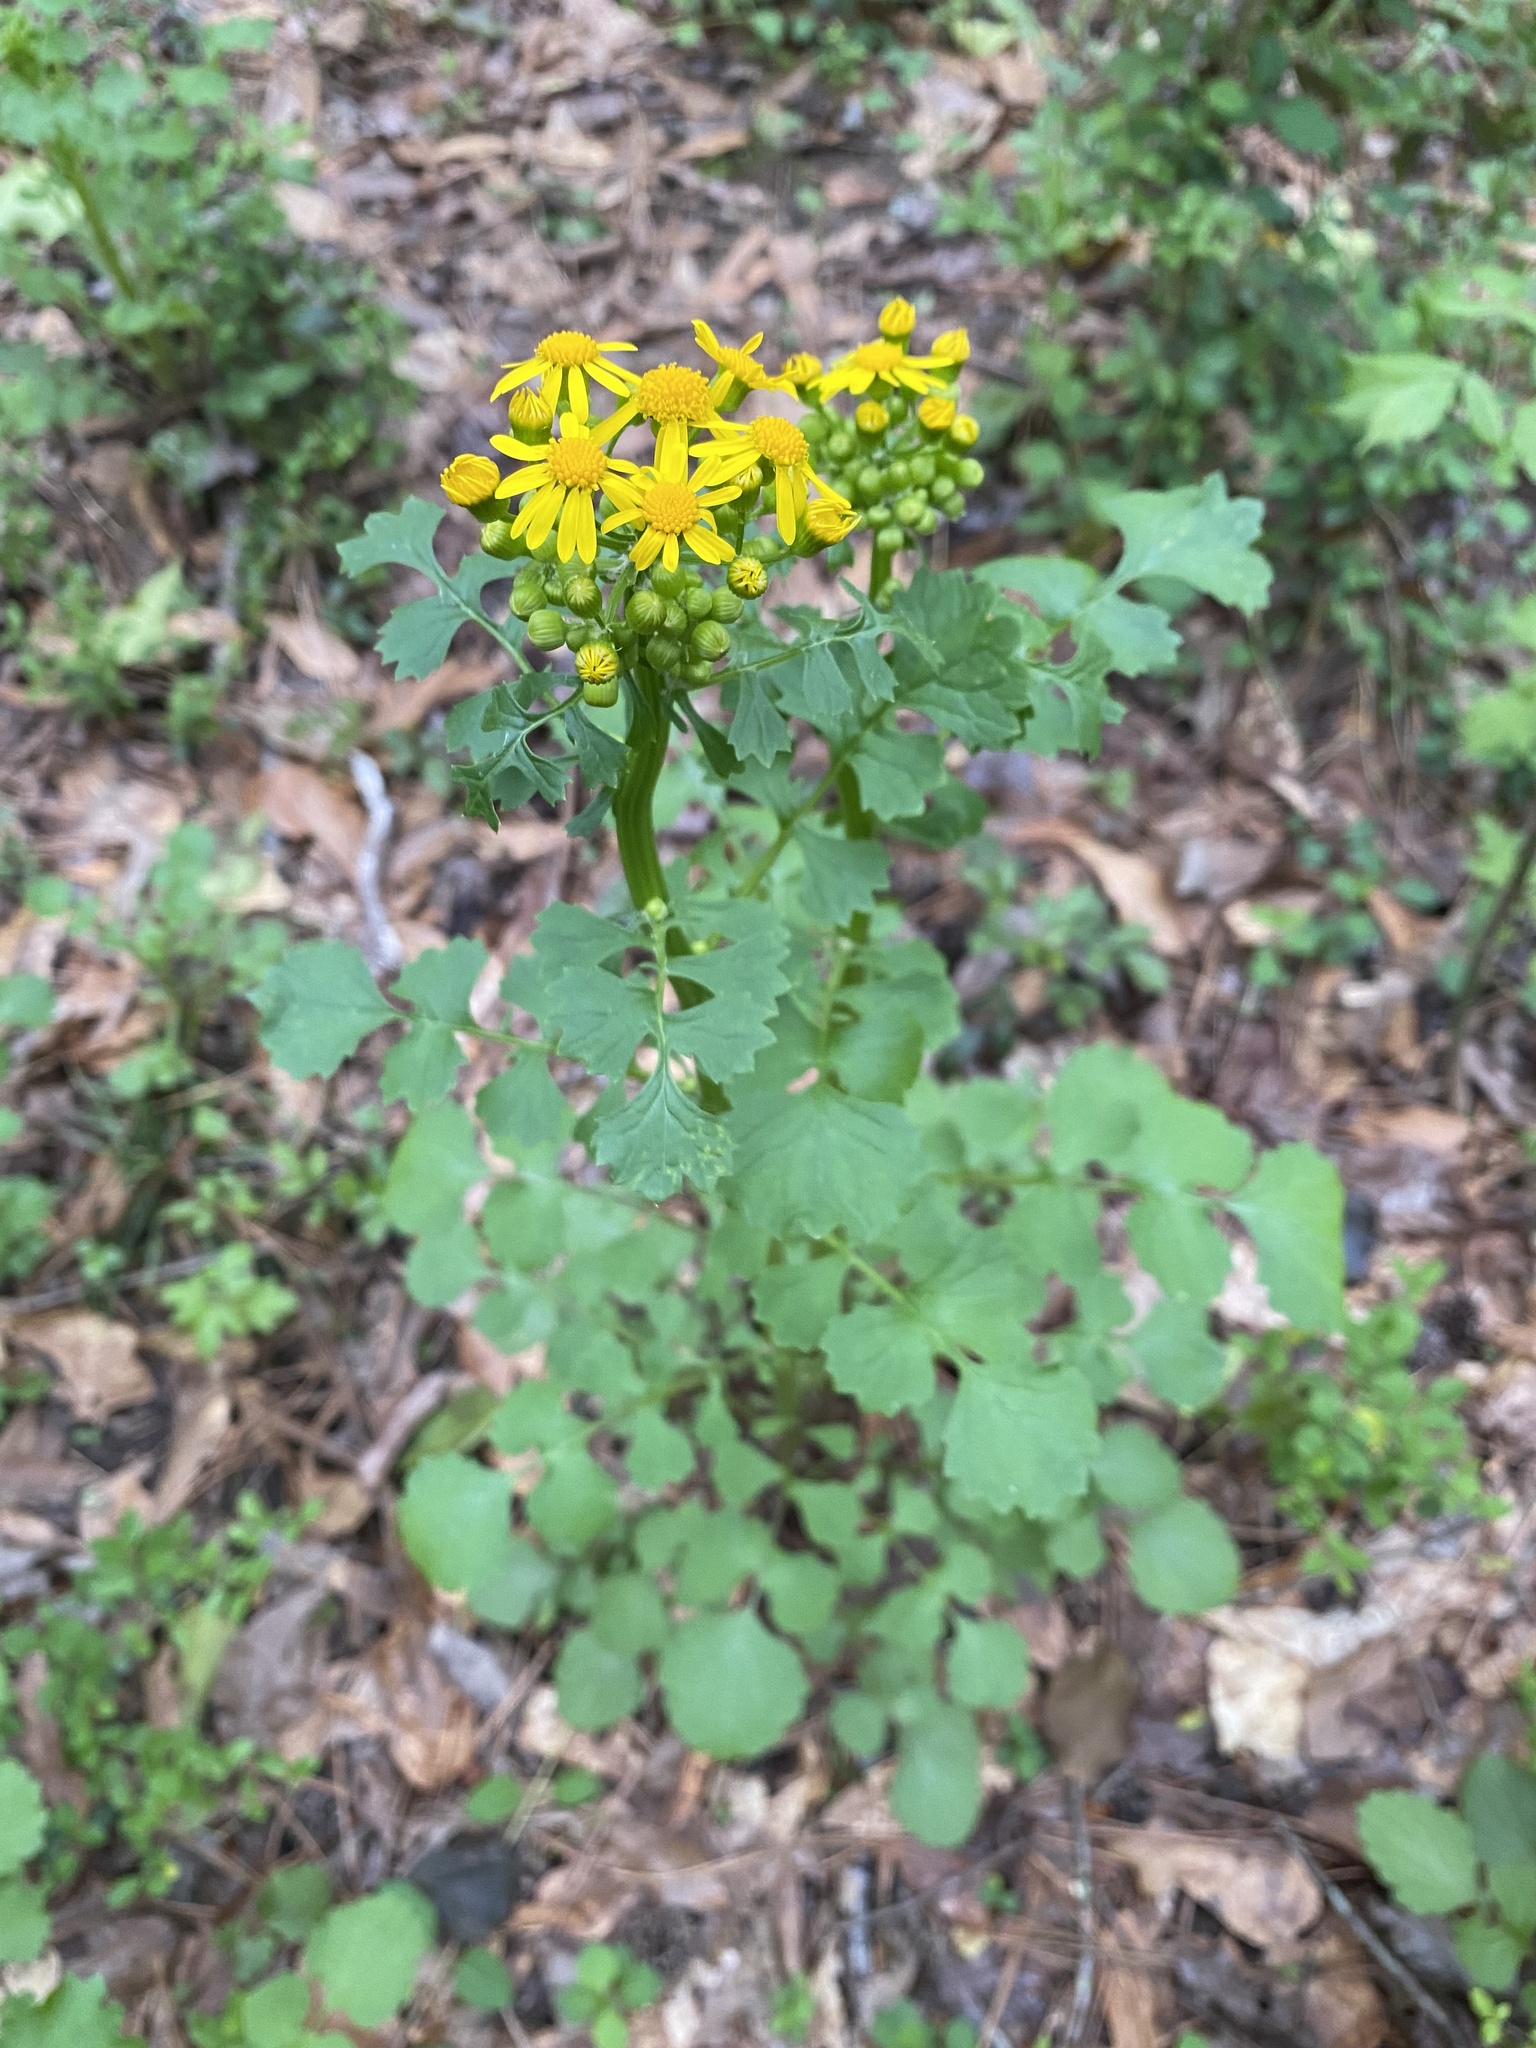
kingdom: Plantae
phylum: Tracheophyta
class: Magnoliopsida
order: Asterales
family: Asteraceae
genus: Packera
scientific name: Packera glabella
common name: Butterweed
